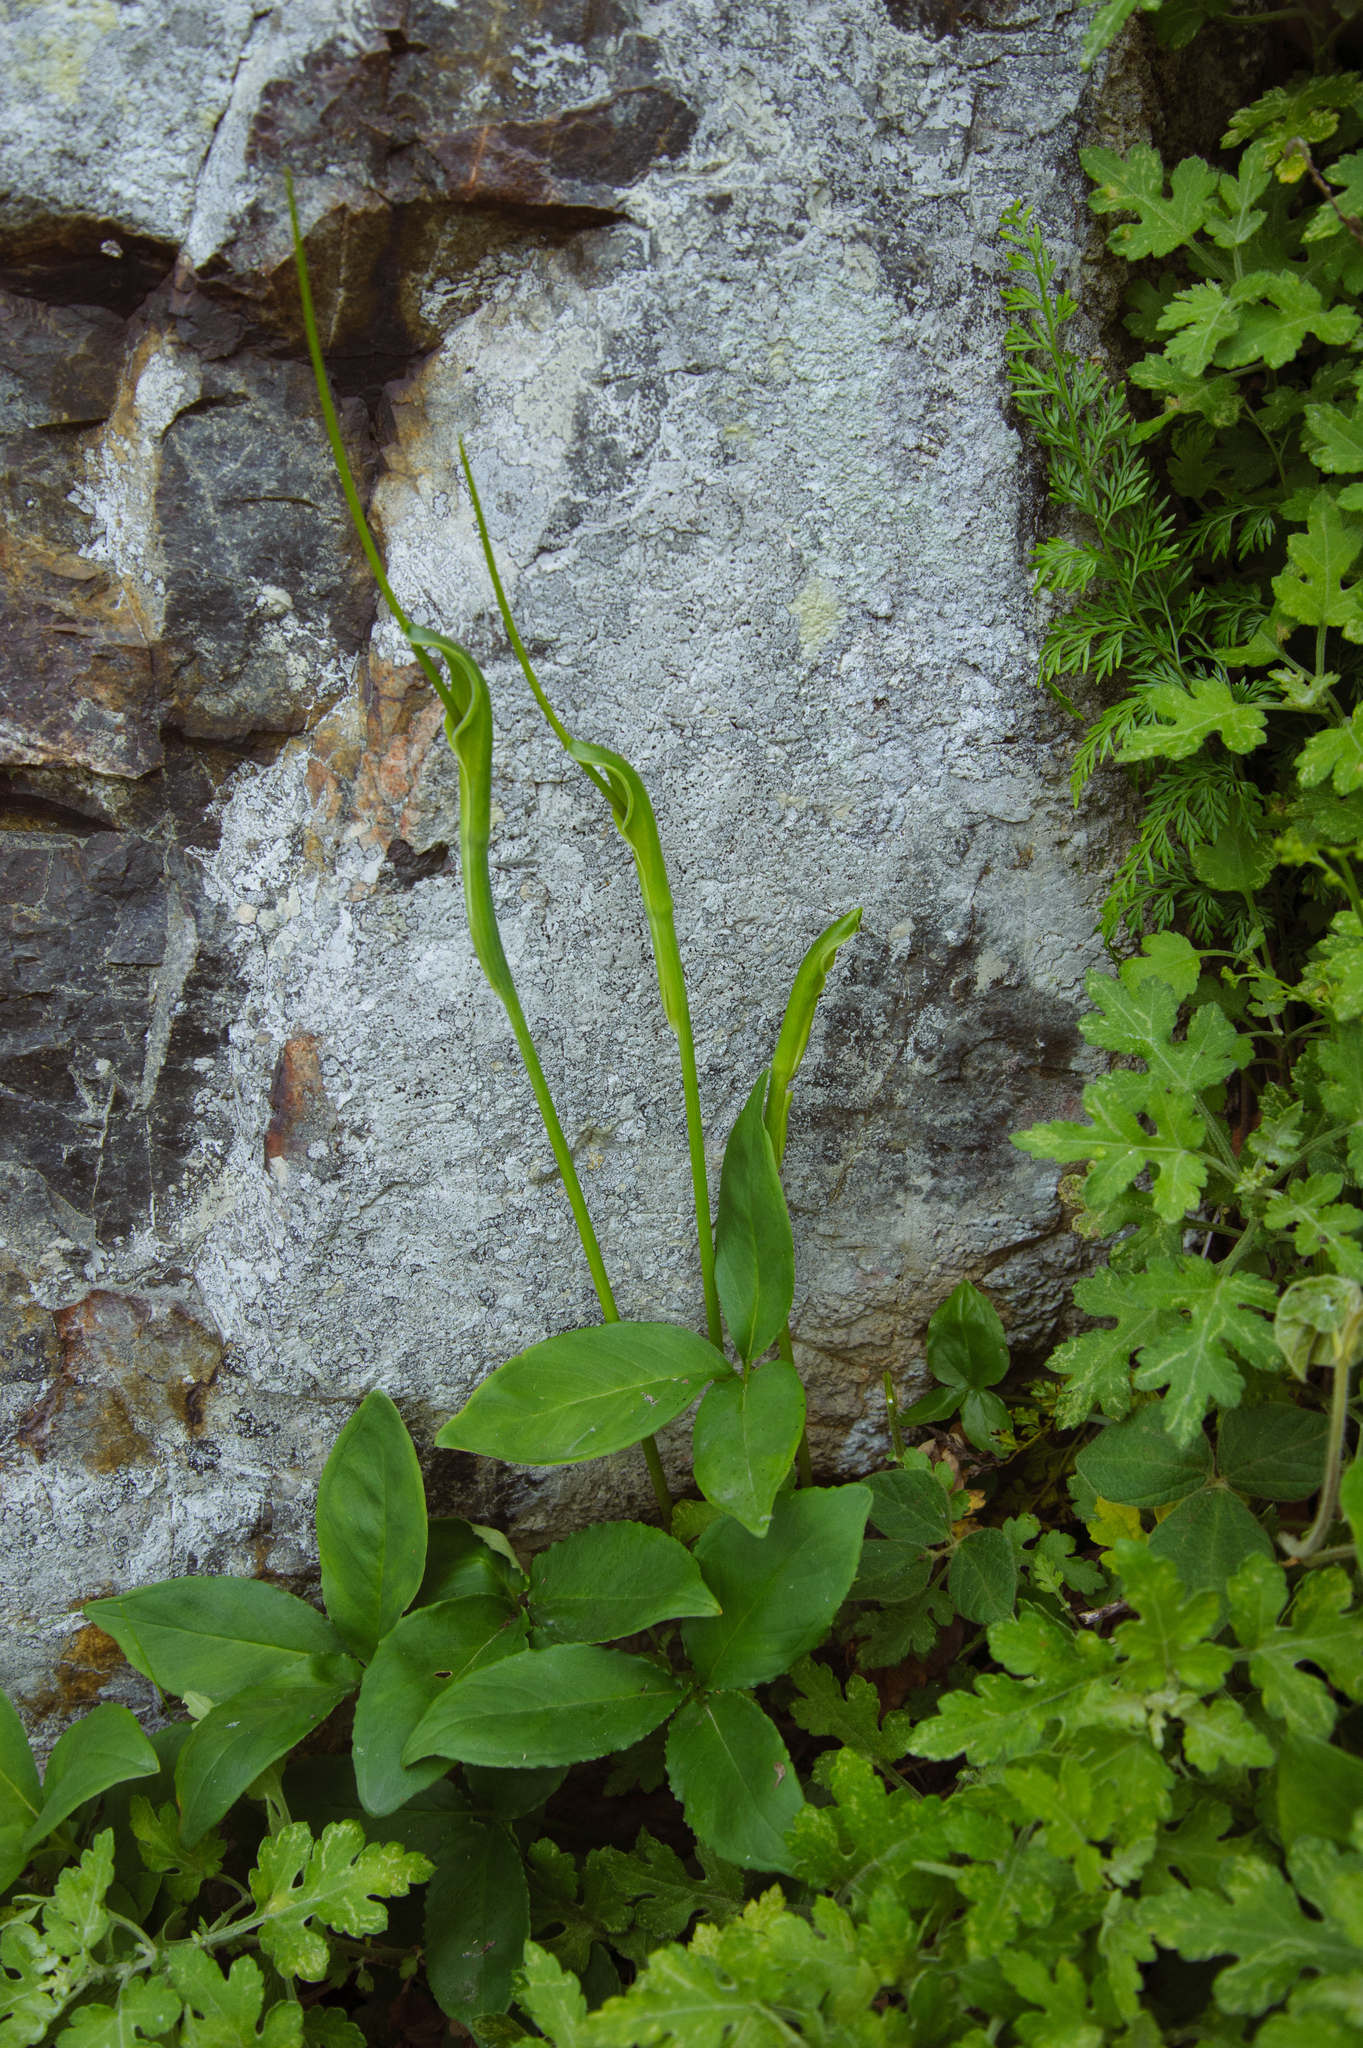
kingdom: Plantae
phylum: Tracheophyta
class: Liliopsida
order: Alismatales
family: Araceae
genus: Pinellia
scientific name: Pinellia ternata
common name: Pinellia
